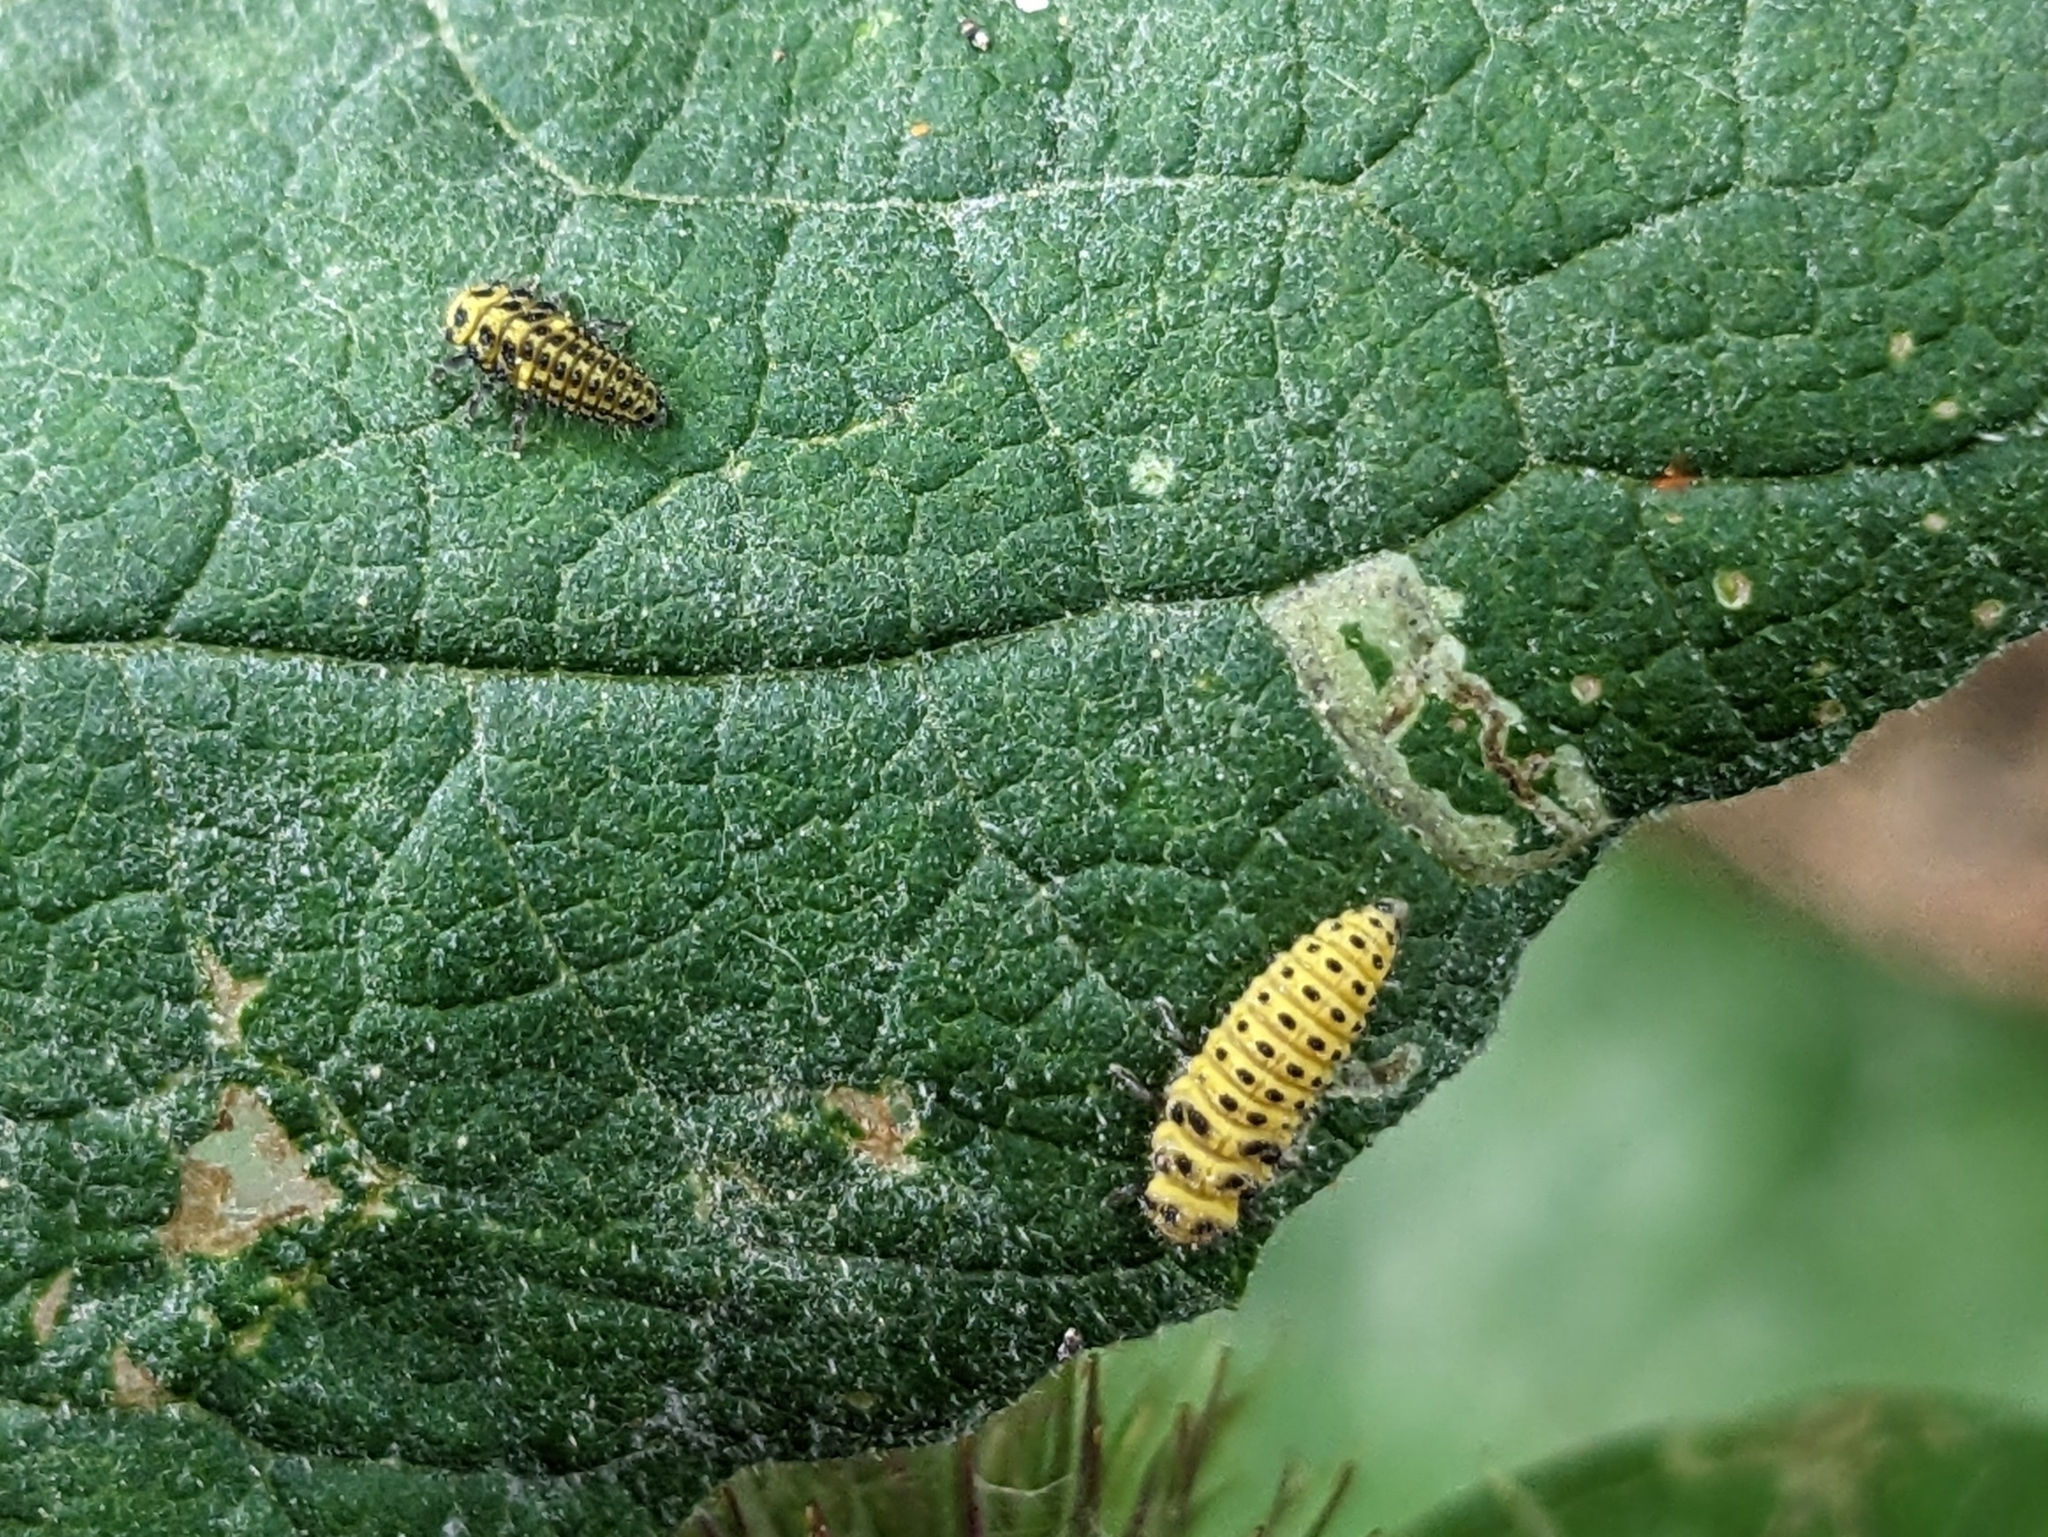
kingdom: Animalia
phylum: Arthropoda
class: Insecta
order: Coleoptera
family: Coccinellidae
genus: Psyllobora
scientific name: Psyllobora vigintiduopunctata
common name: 22-spot ladybird
